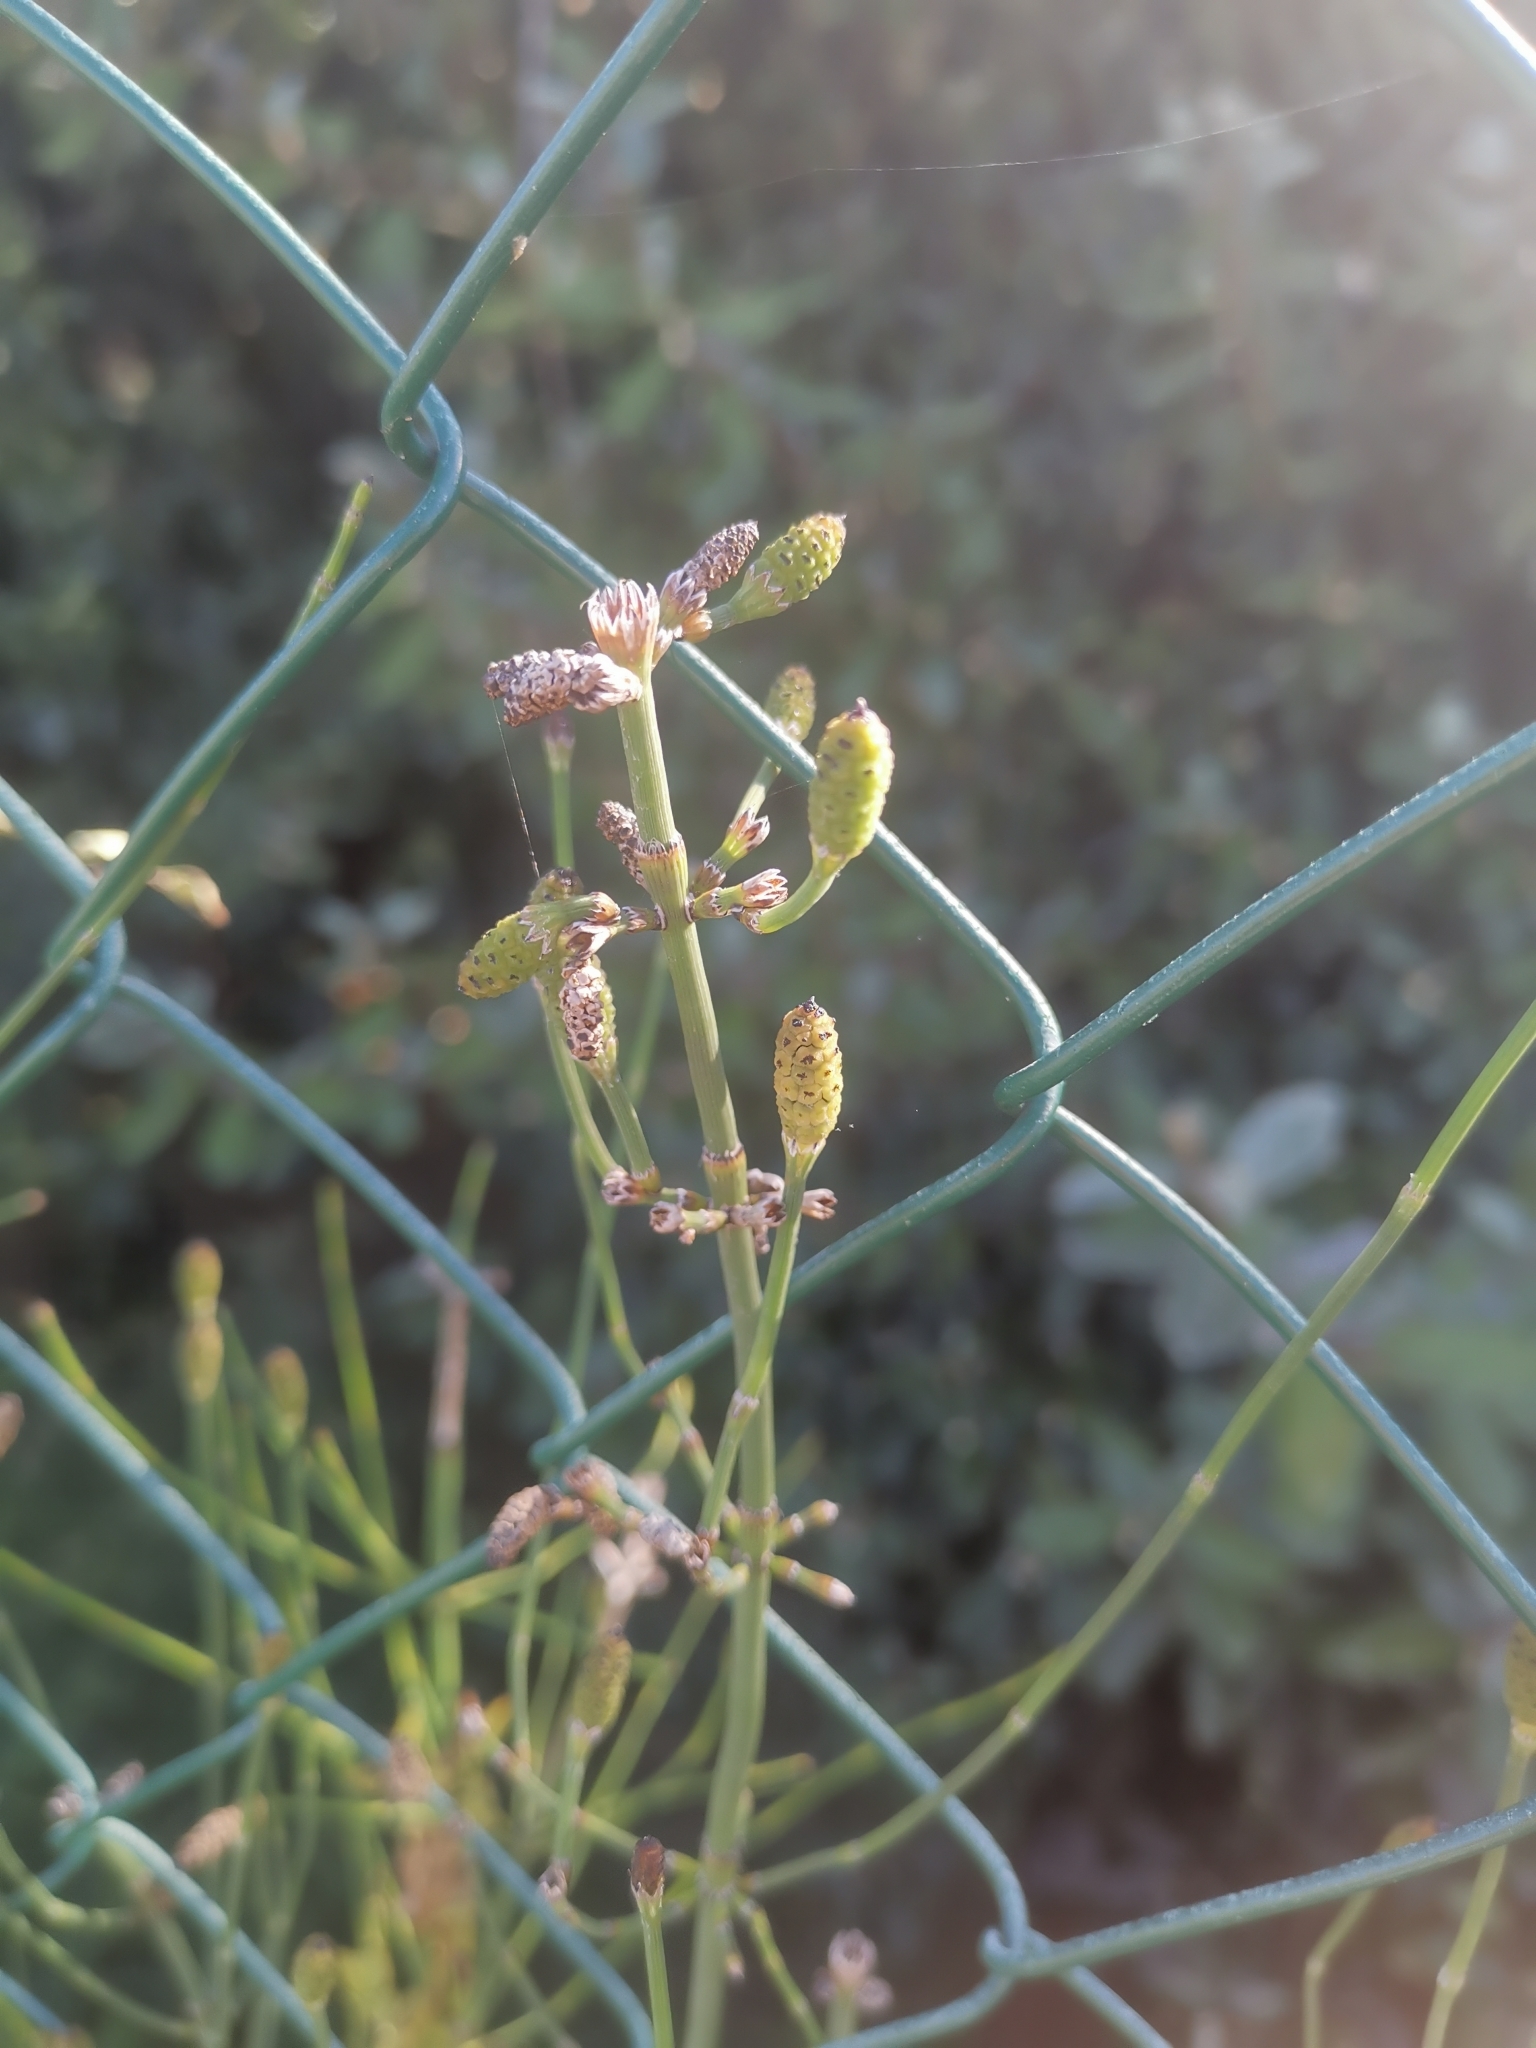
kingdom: Plantae
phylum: Tracheophyta
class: Polypodiopsida
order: Equisetales
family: Equisetaceae
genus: Equisetum
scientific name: Equisetum ramosissimum
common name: Branched horsetail
